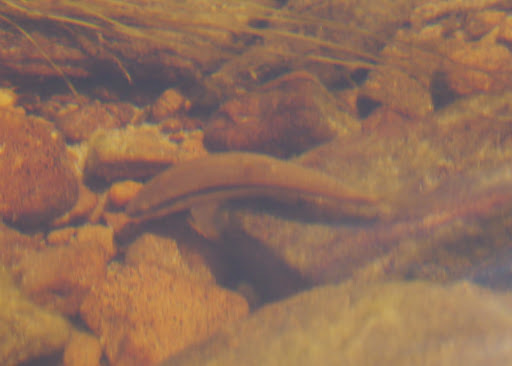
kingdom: Animalia
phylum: Chordata
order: Cypriniformes
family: Cyprinidae
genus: Rhinichthys
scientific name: Rhinichthys atratulus
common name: Eastern blacknose dace
